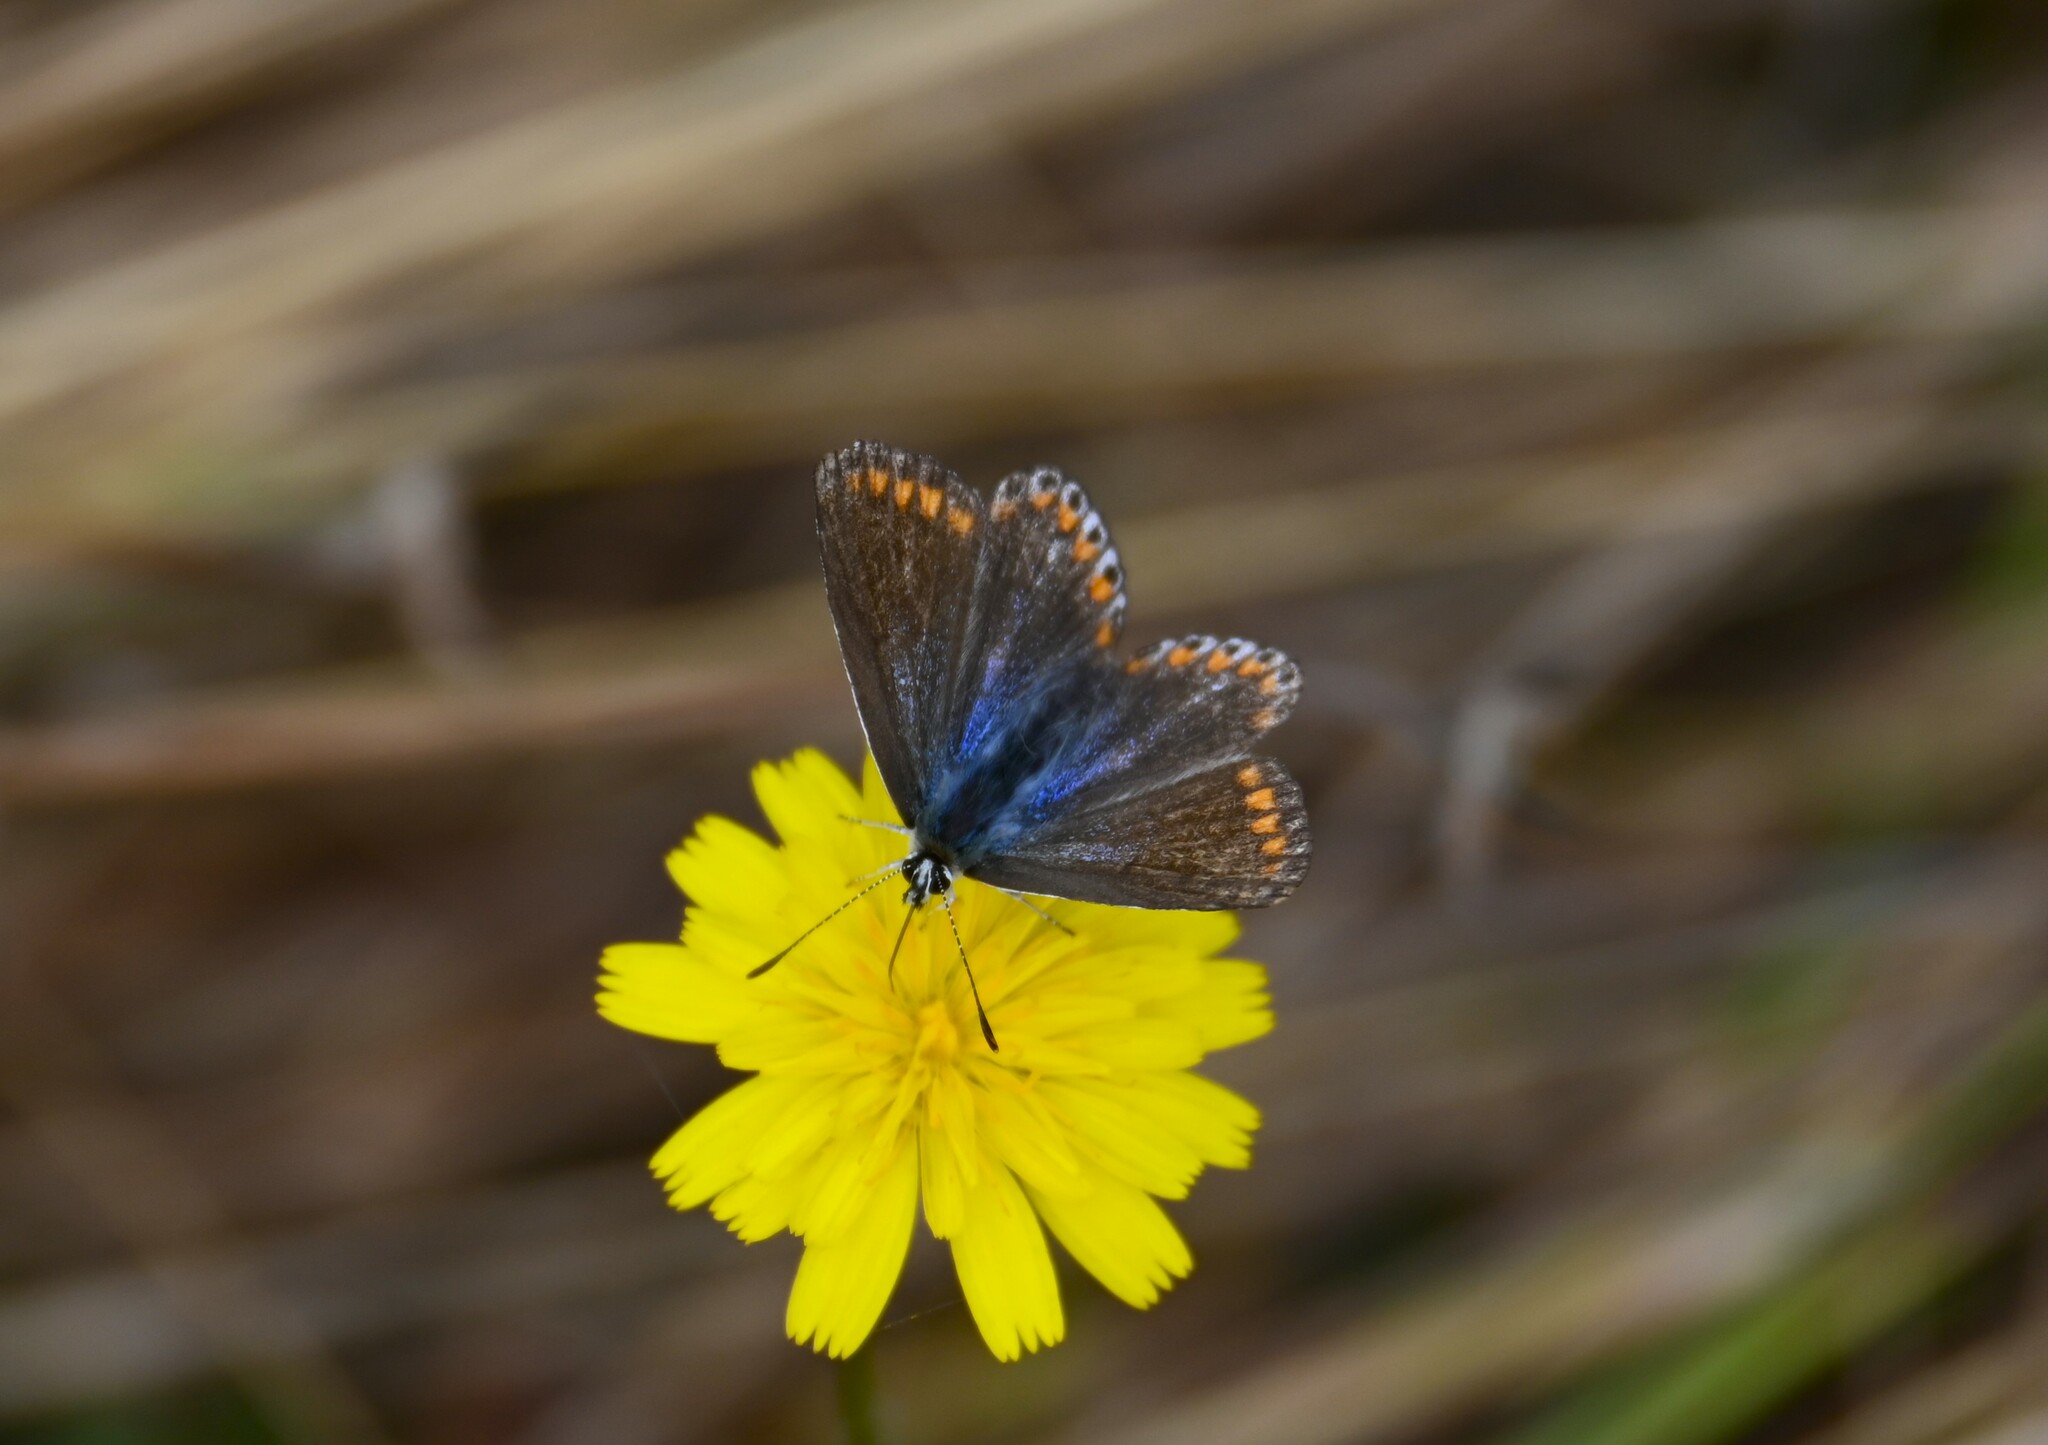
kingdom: Animalia
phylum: Arthropoda
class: Insecta
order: Lepidoptera
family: Lycaenidae
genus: Polyommatus
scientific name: Polyommatus icarus
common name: Common blue
